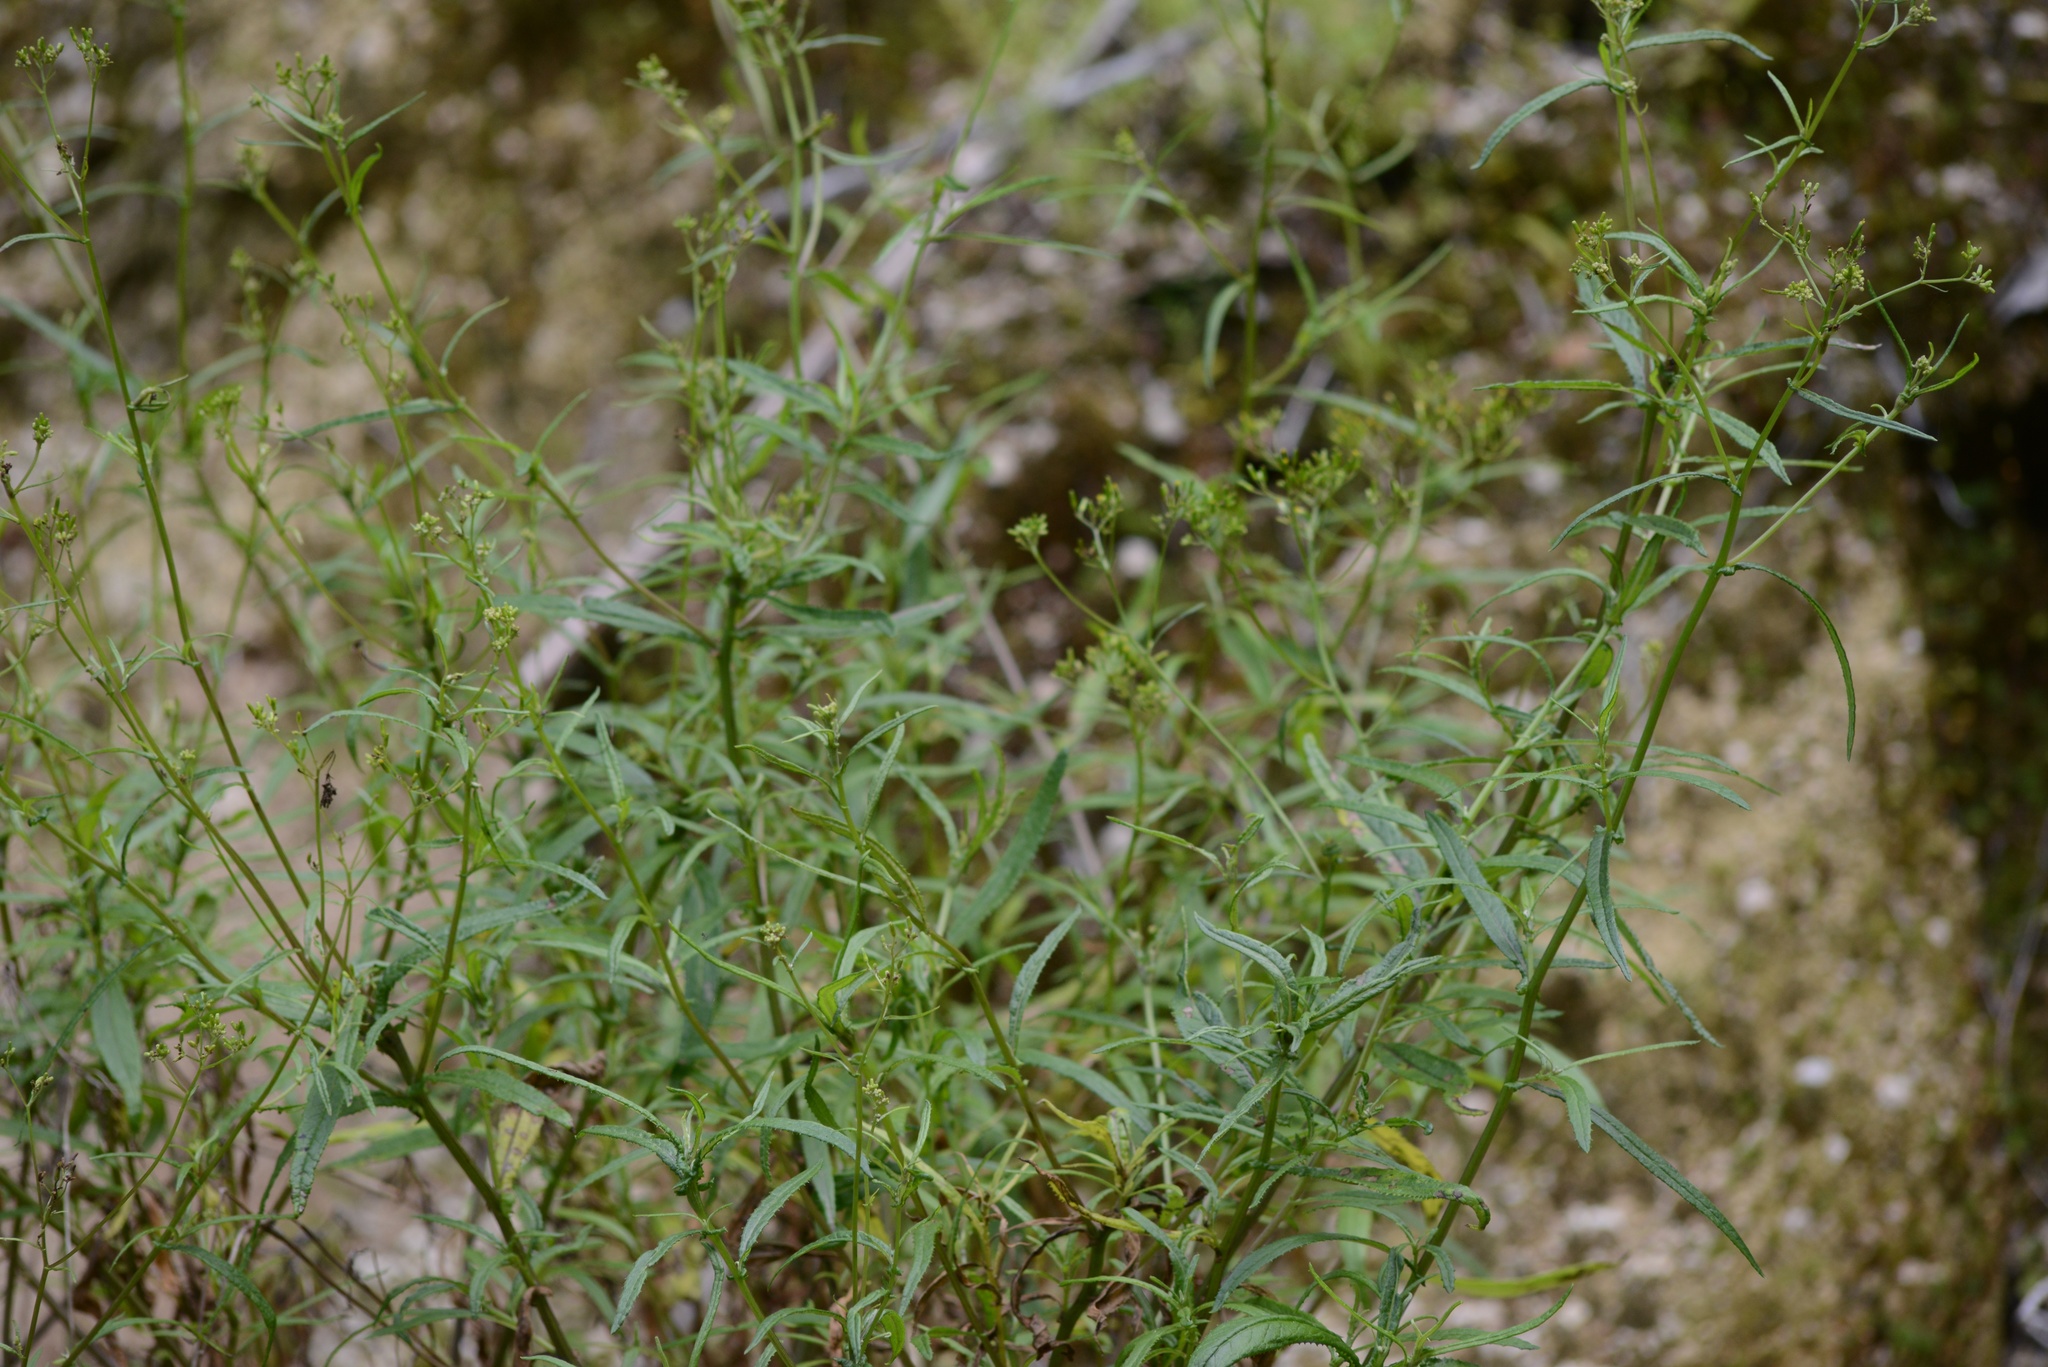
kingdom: Plantae
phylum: Tracheophyta
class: Magnoliopsida
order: Asterales
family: Asteraceae
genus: Senecio
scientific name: Senecio minimus
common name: Toothed fireweed
